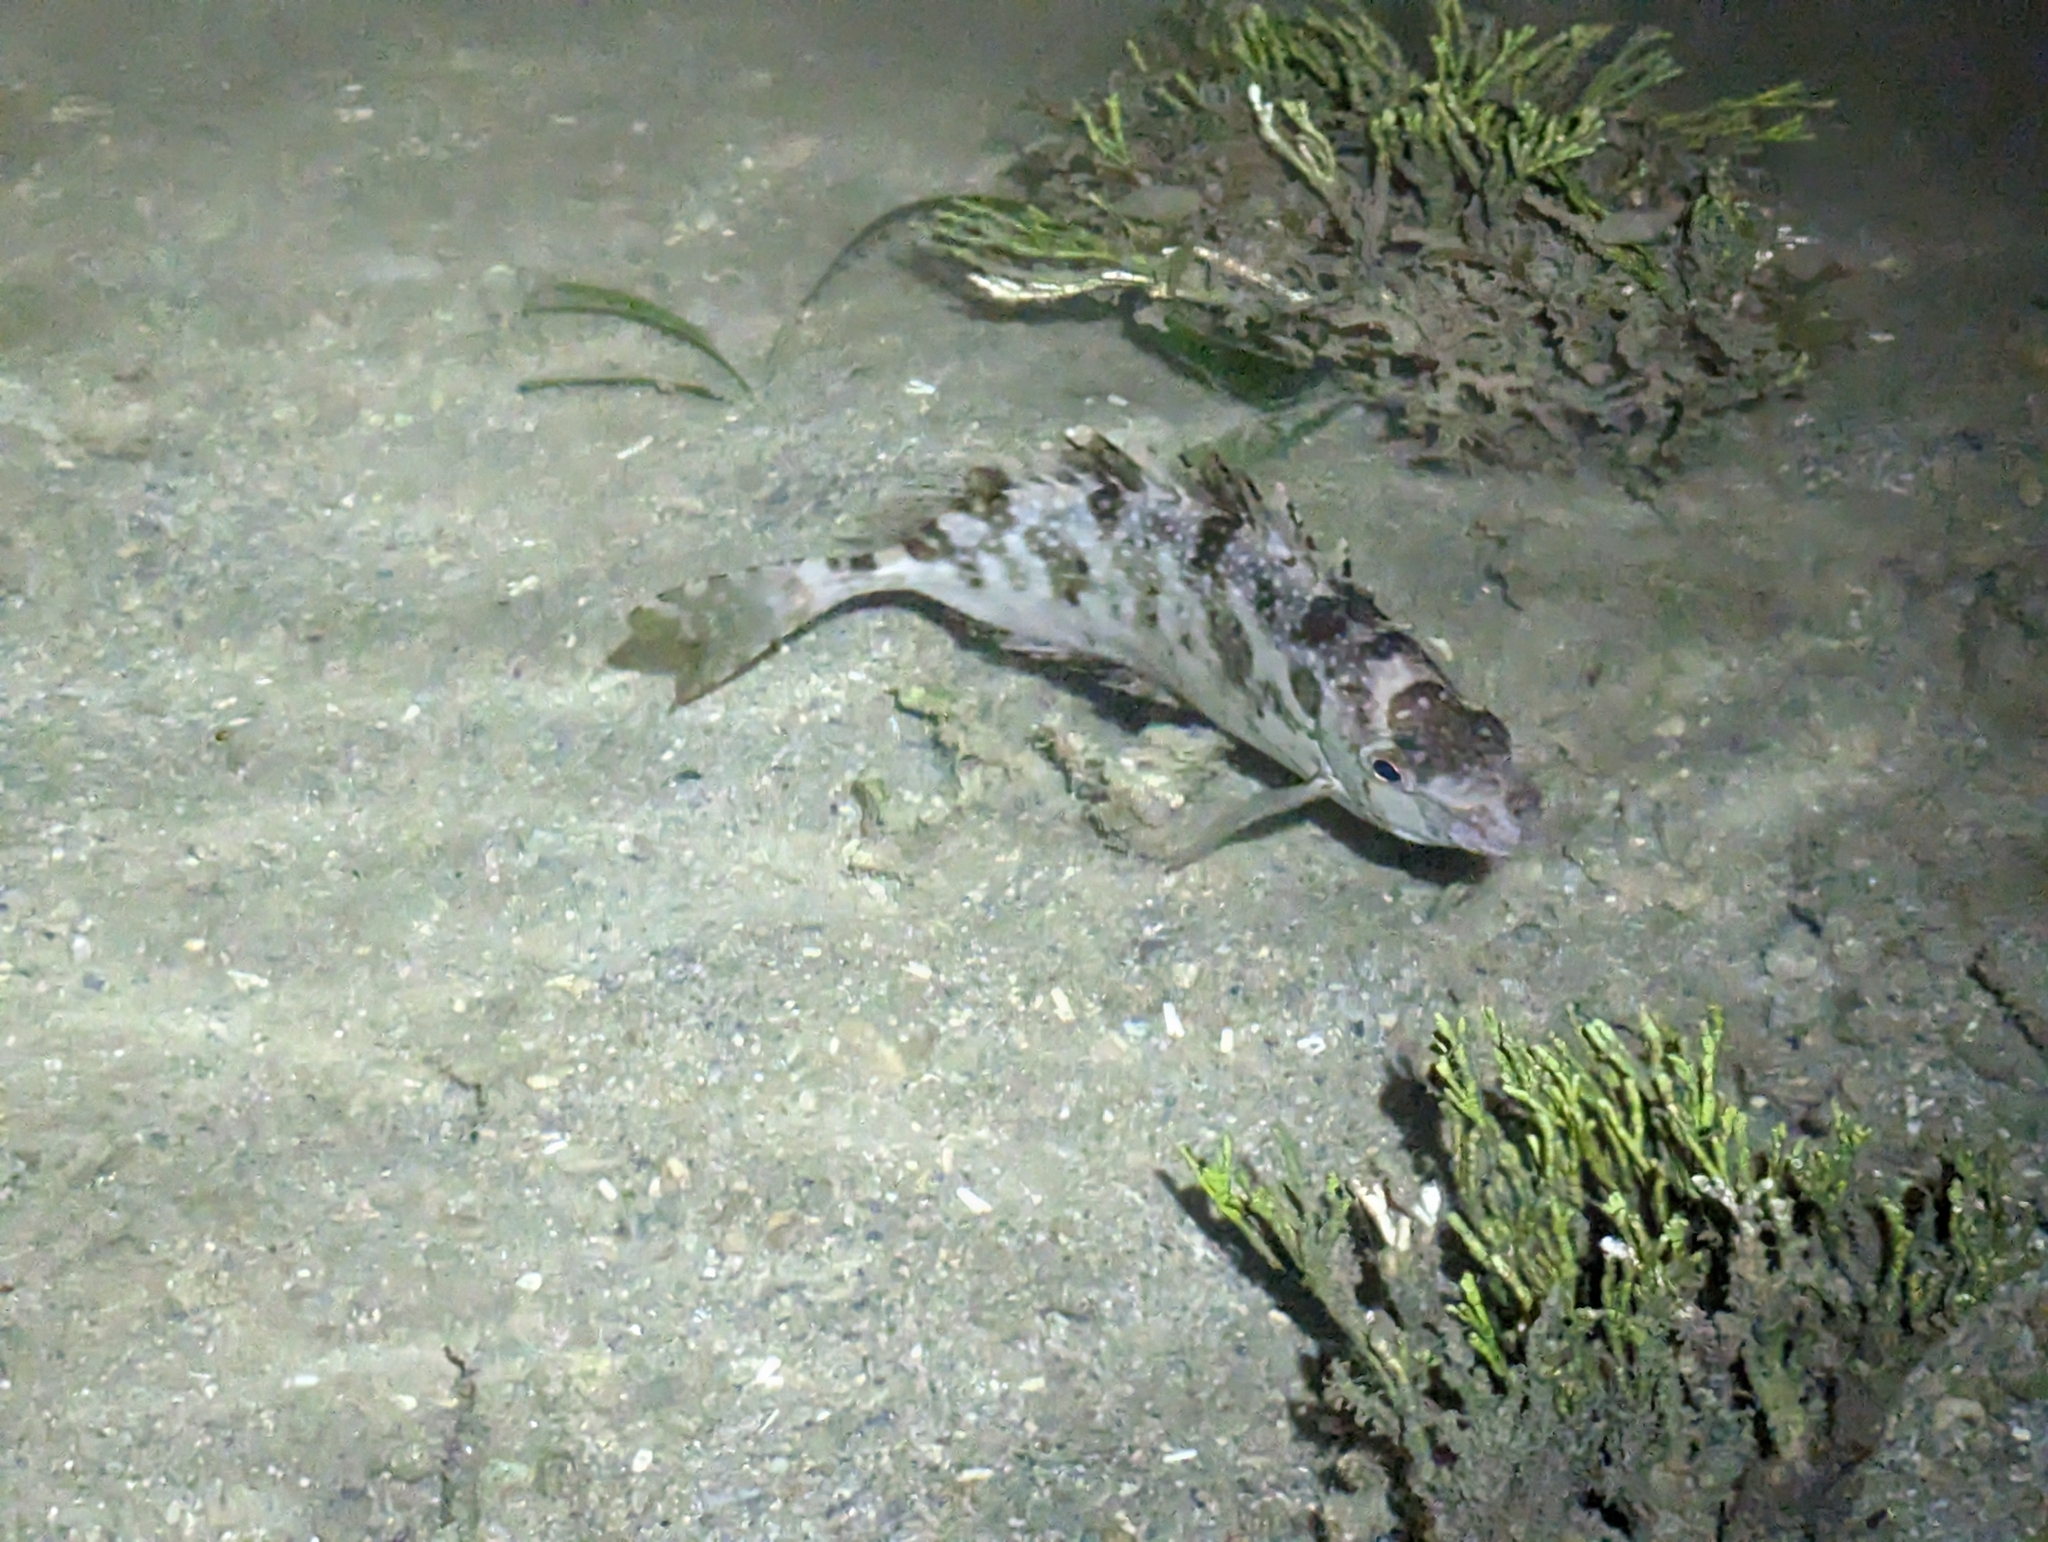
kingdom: Animalia
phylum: Chordata
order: Perciformes
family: Siganidae
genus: Siganus
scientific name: Siganus fuscescens
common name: Dusky rabbitfish
